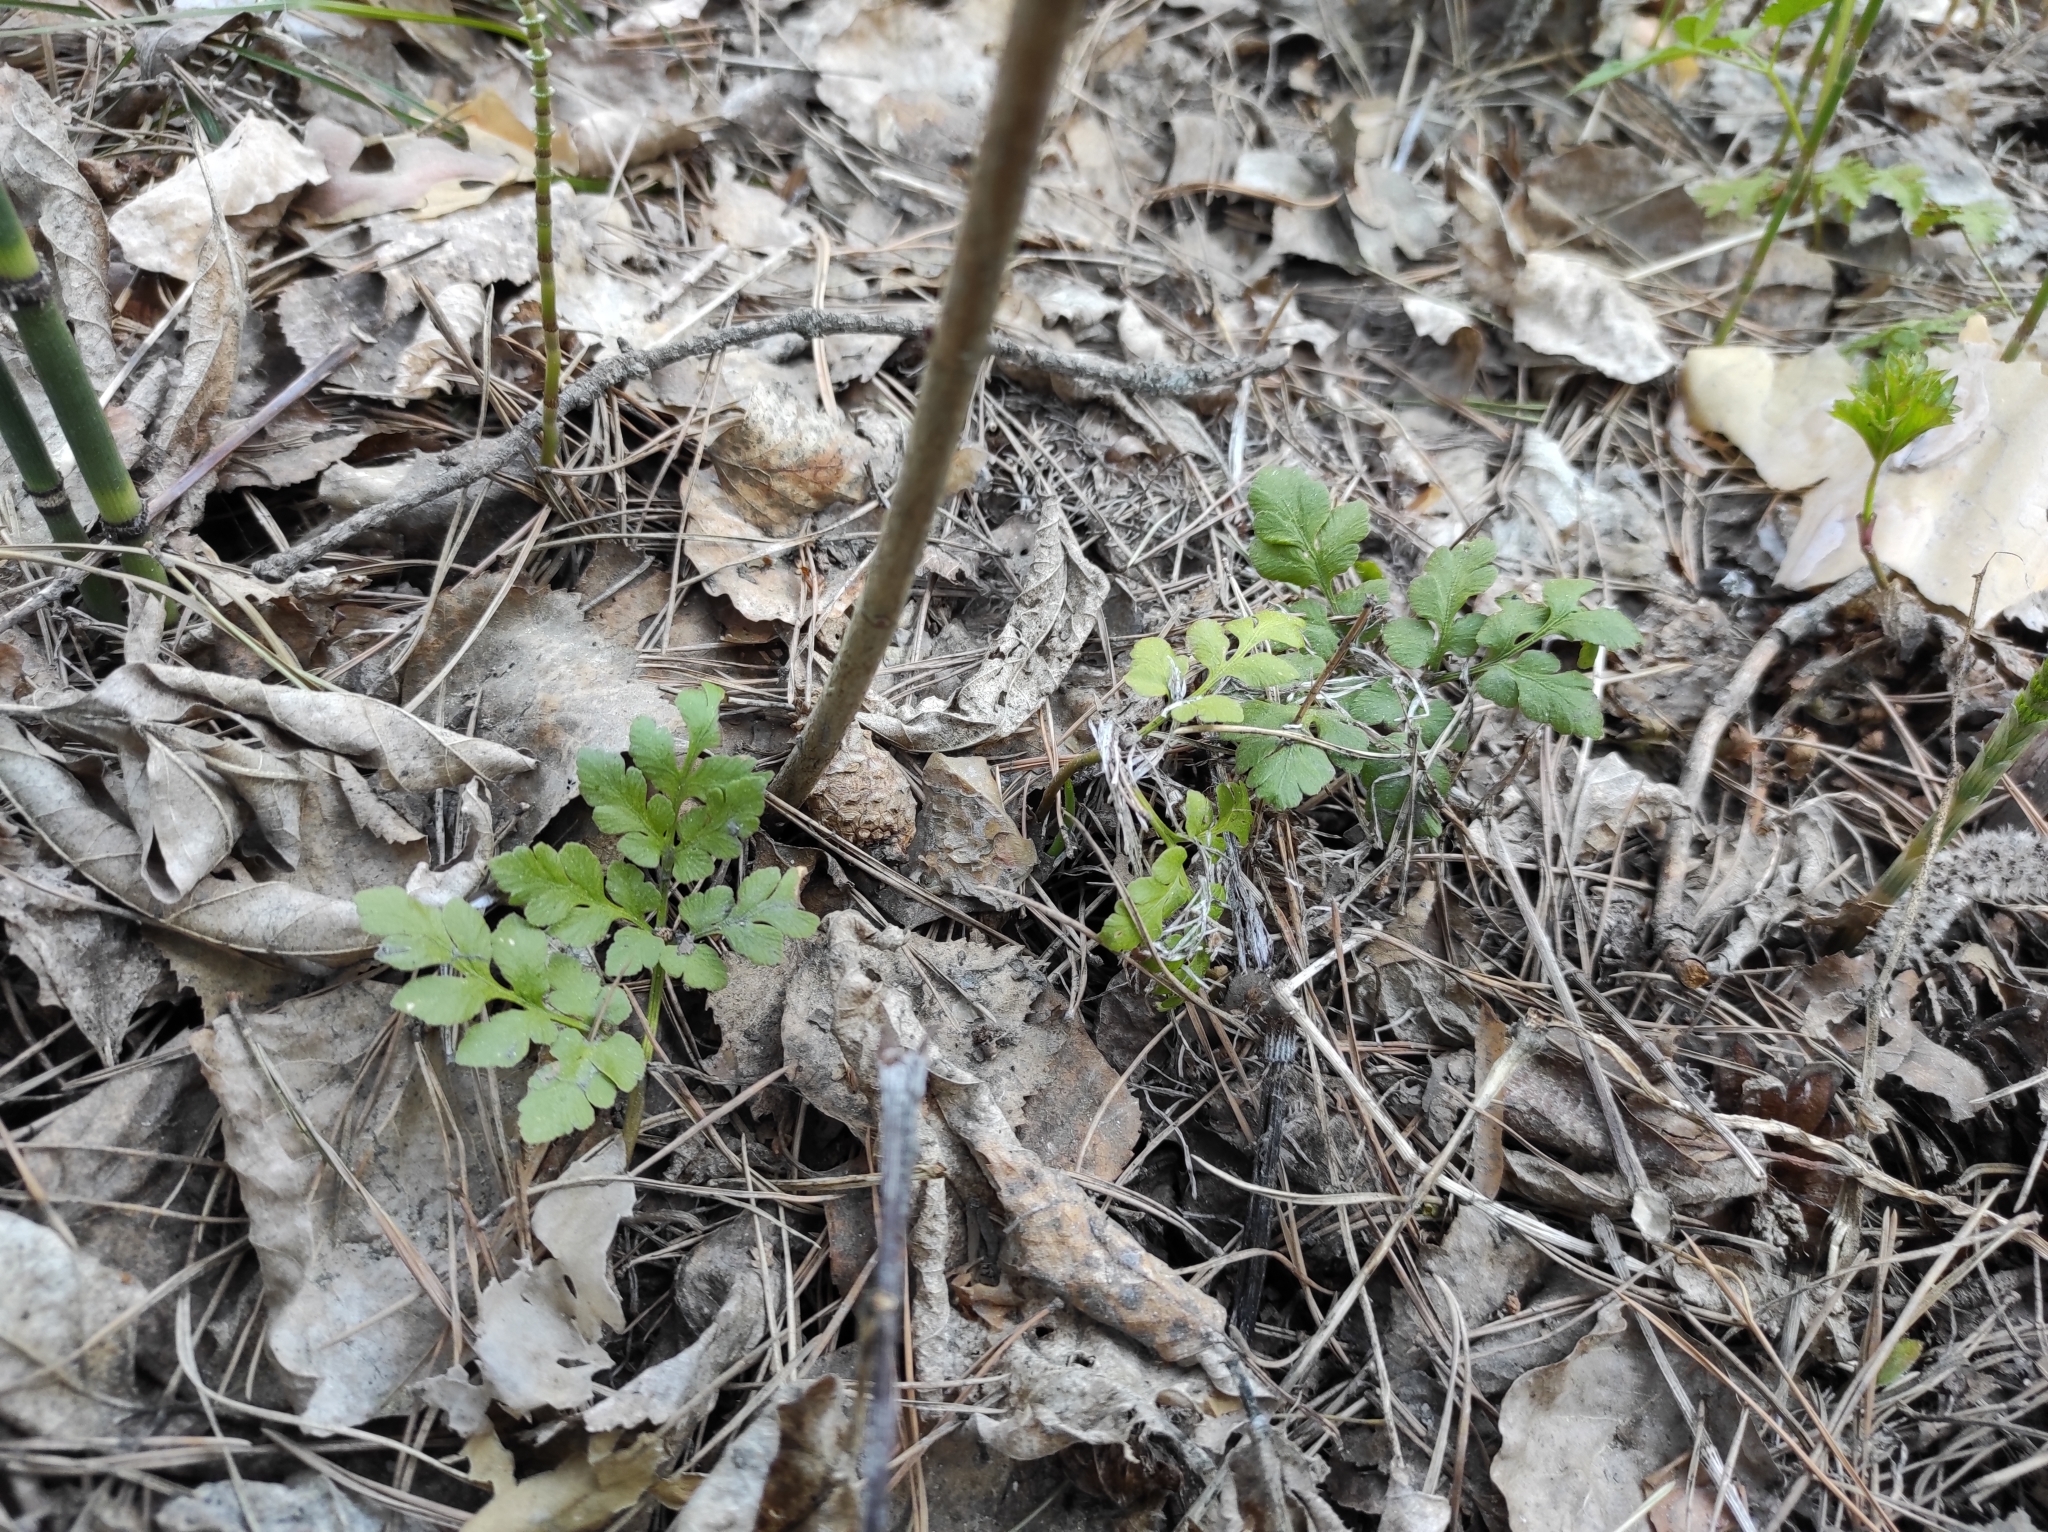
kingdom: Plantae
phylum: Tracheophyta
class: Polypodiopsida
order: Ophioglossales
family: Ophioglossaceae
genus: Sceptridium
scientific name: Sceptridium multifidum
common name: Leathery grape fern
